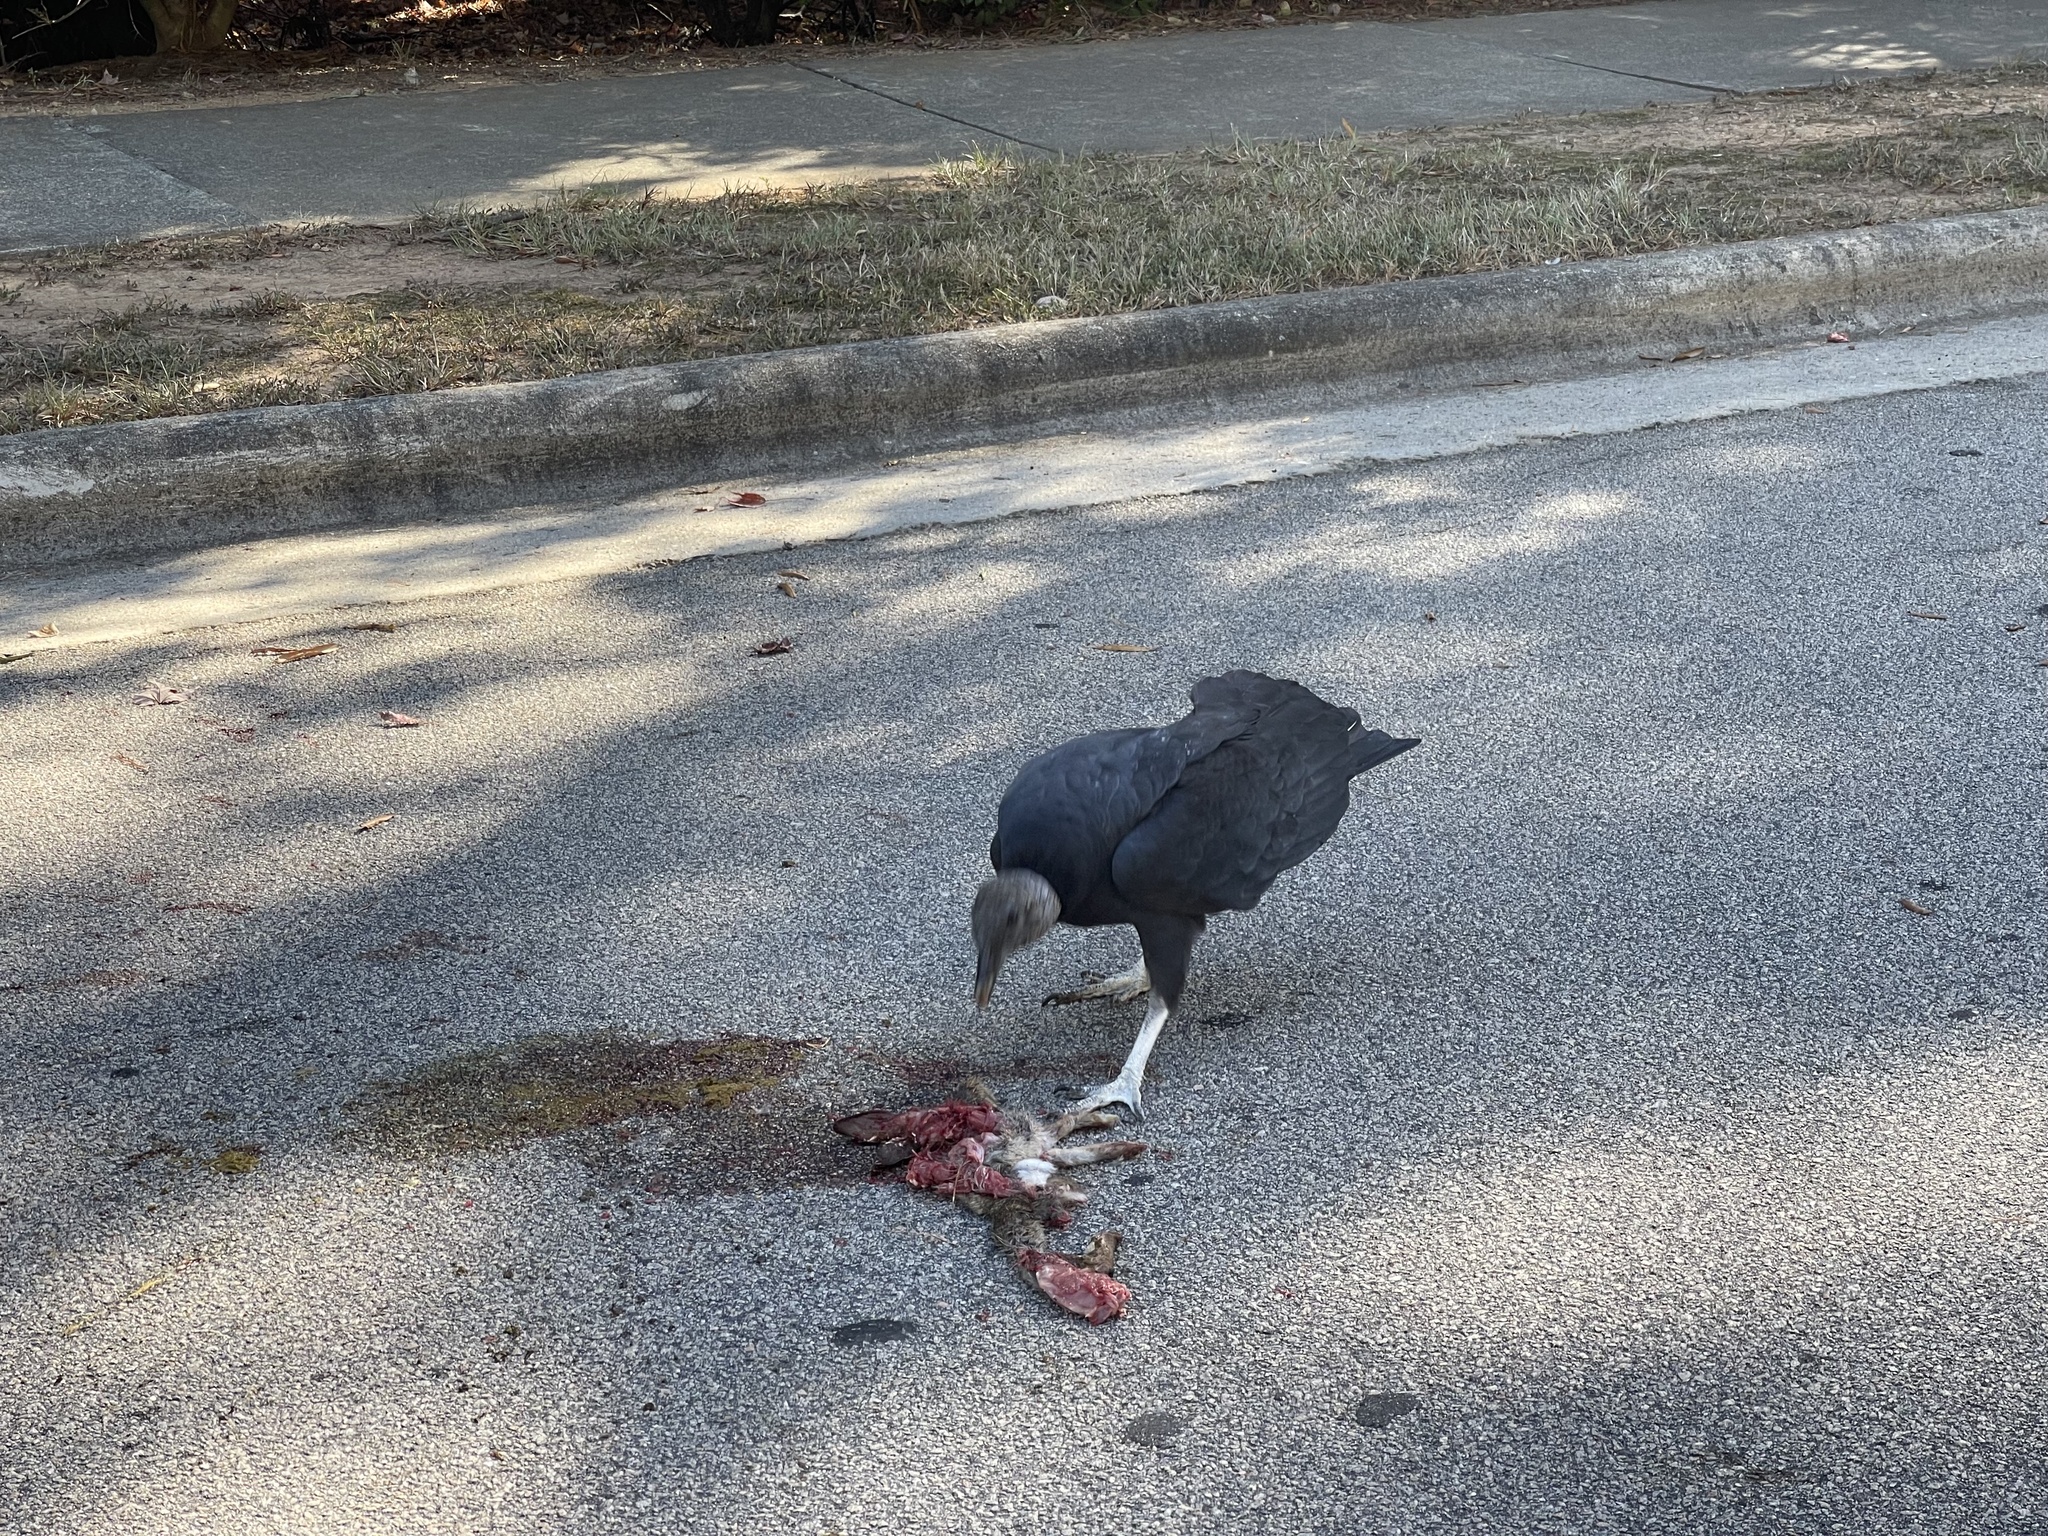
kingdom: Animalia
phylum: Chordata
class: Aves
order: Accipitriformes
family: Cathartidae
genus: Coragyps
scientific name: Coragyps atratus
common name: Black vulture
